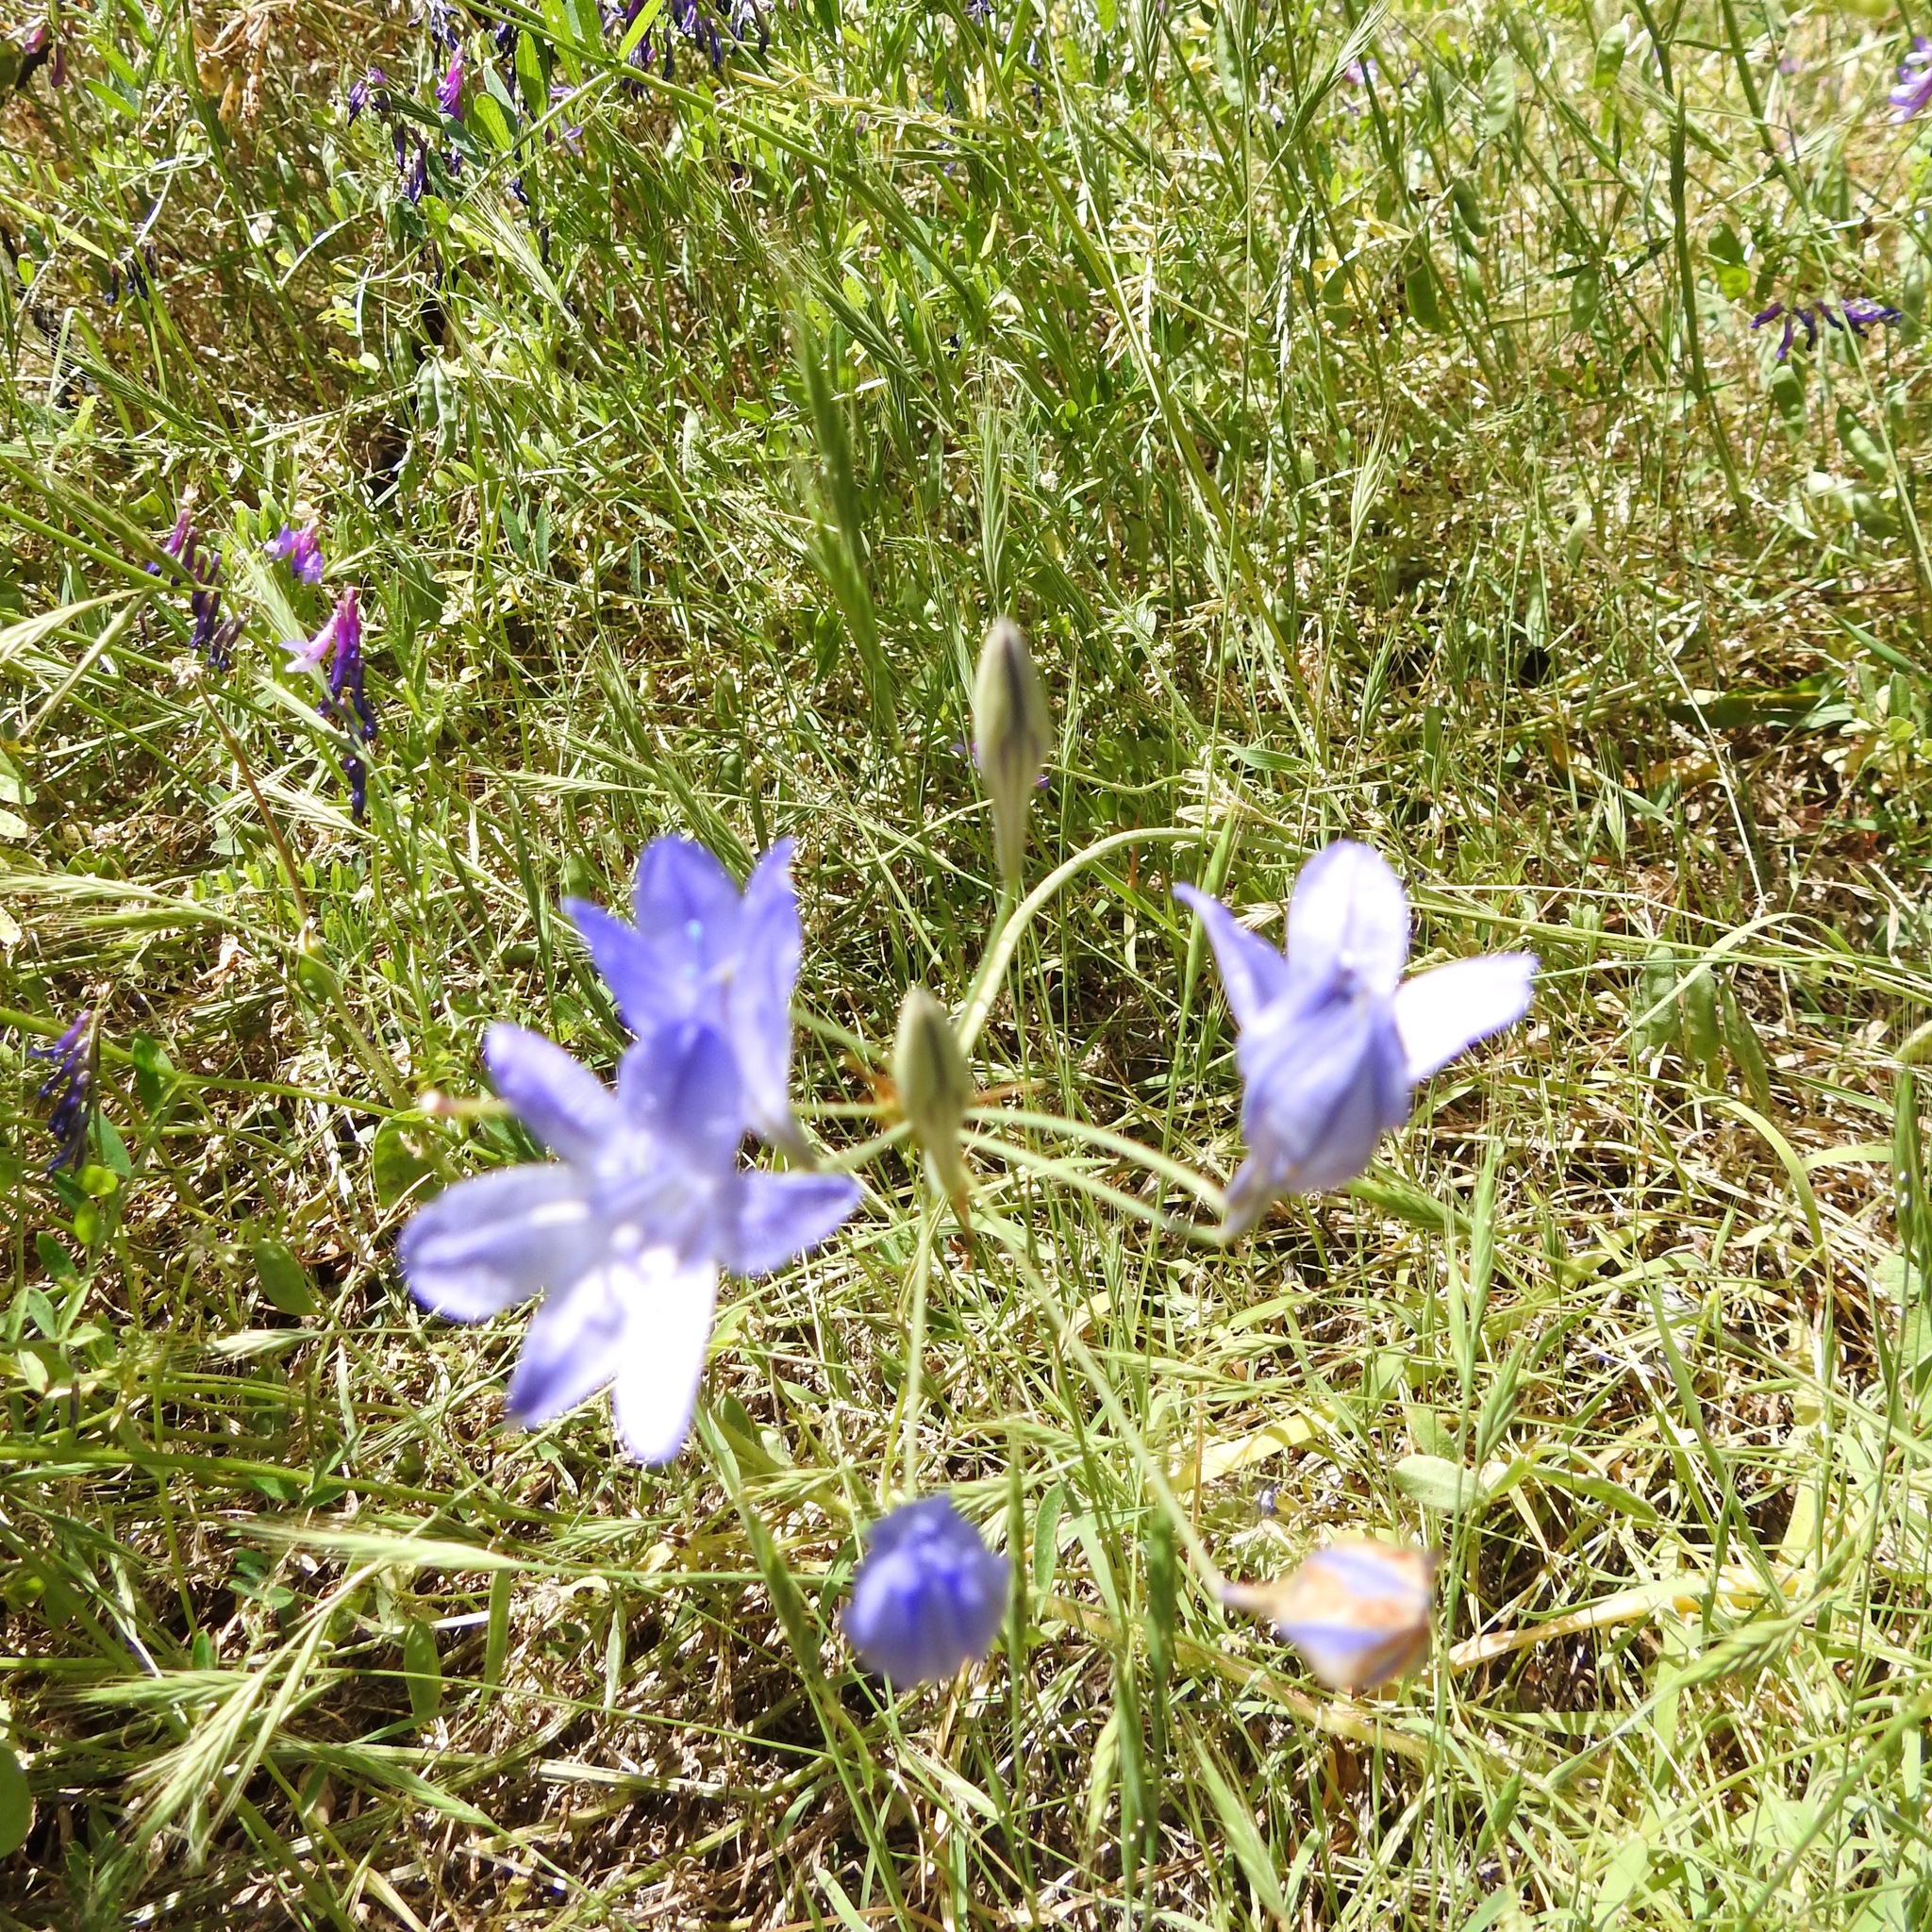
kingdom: Plantae
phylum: Tracheophyta
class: Liliopsida
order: Asparagales
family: Asparagaceae
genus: Triteleia
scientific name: Triteleia laxa
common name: Triplet-lily
